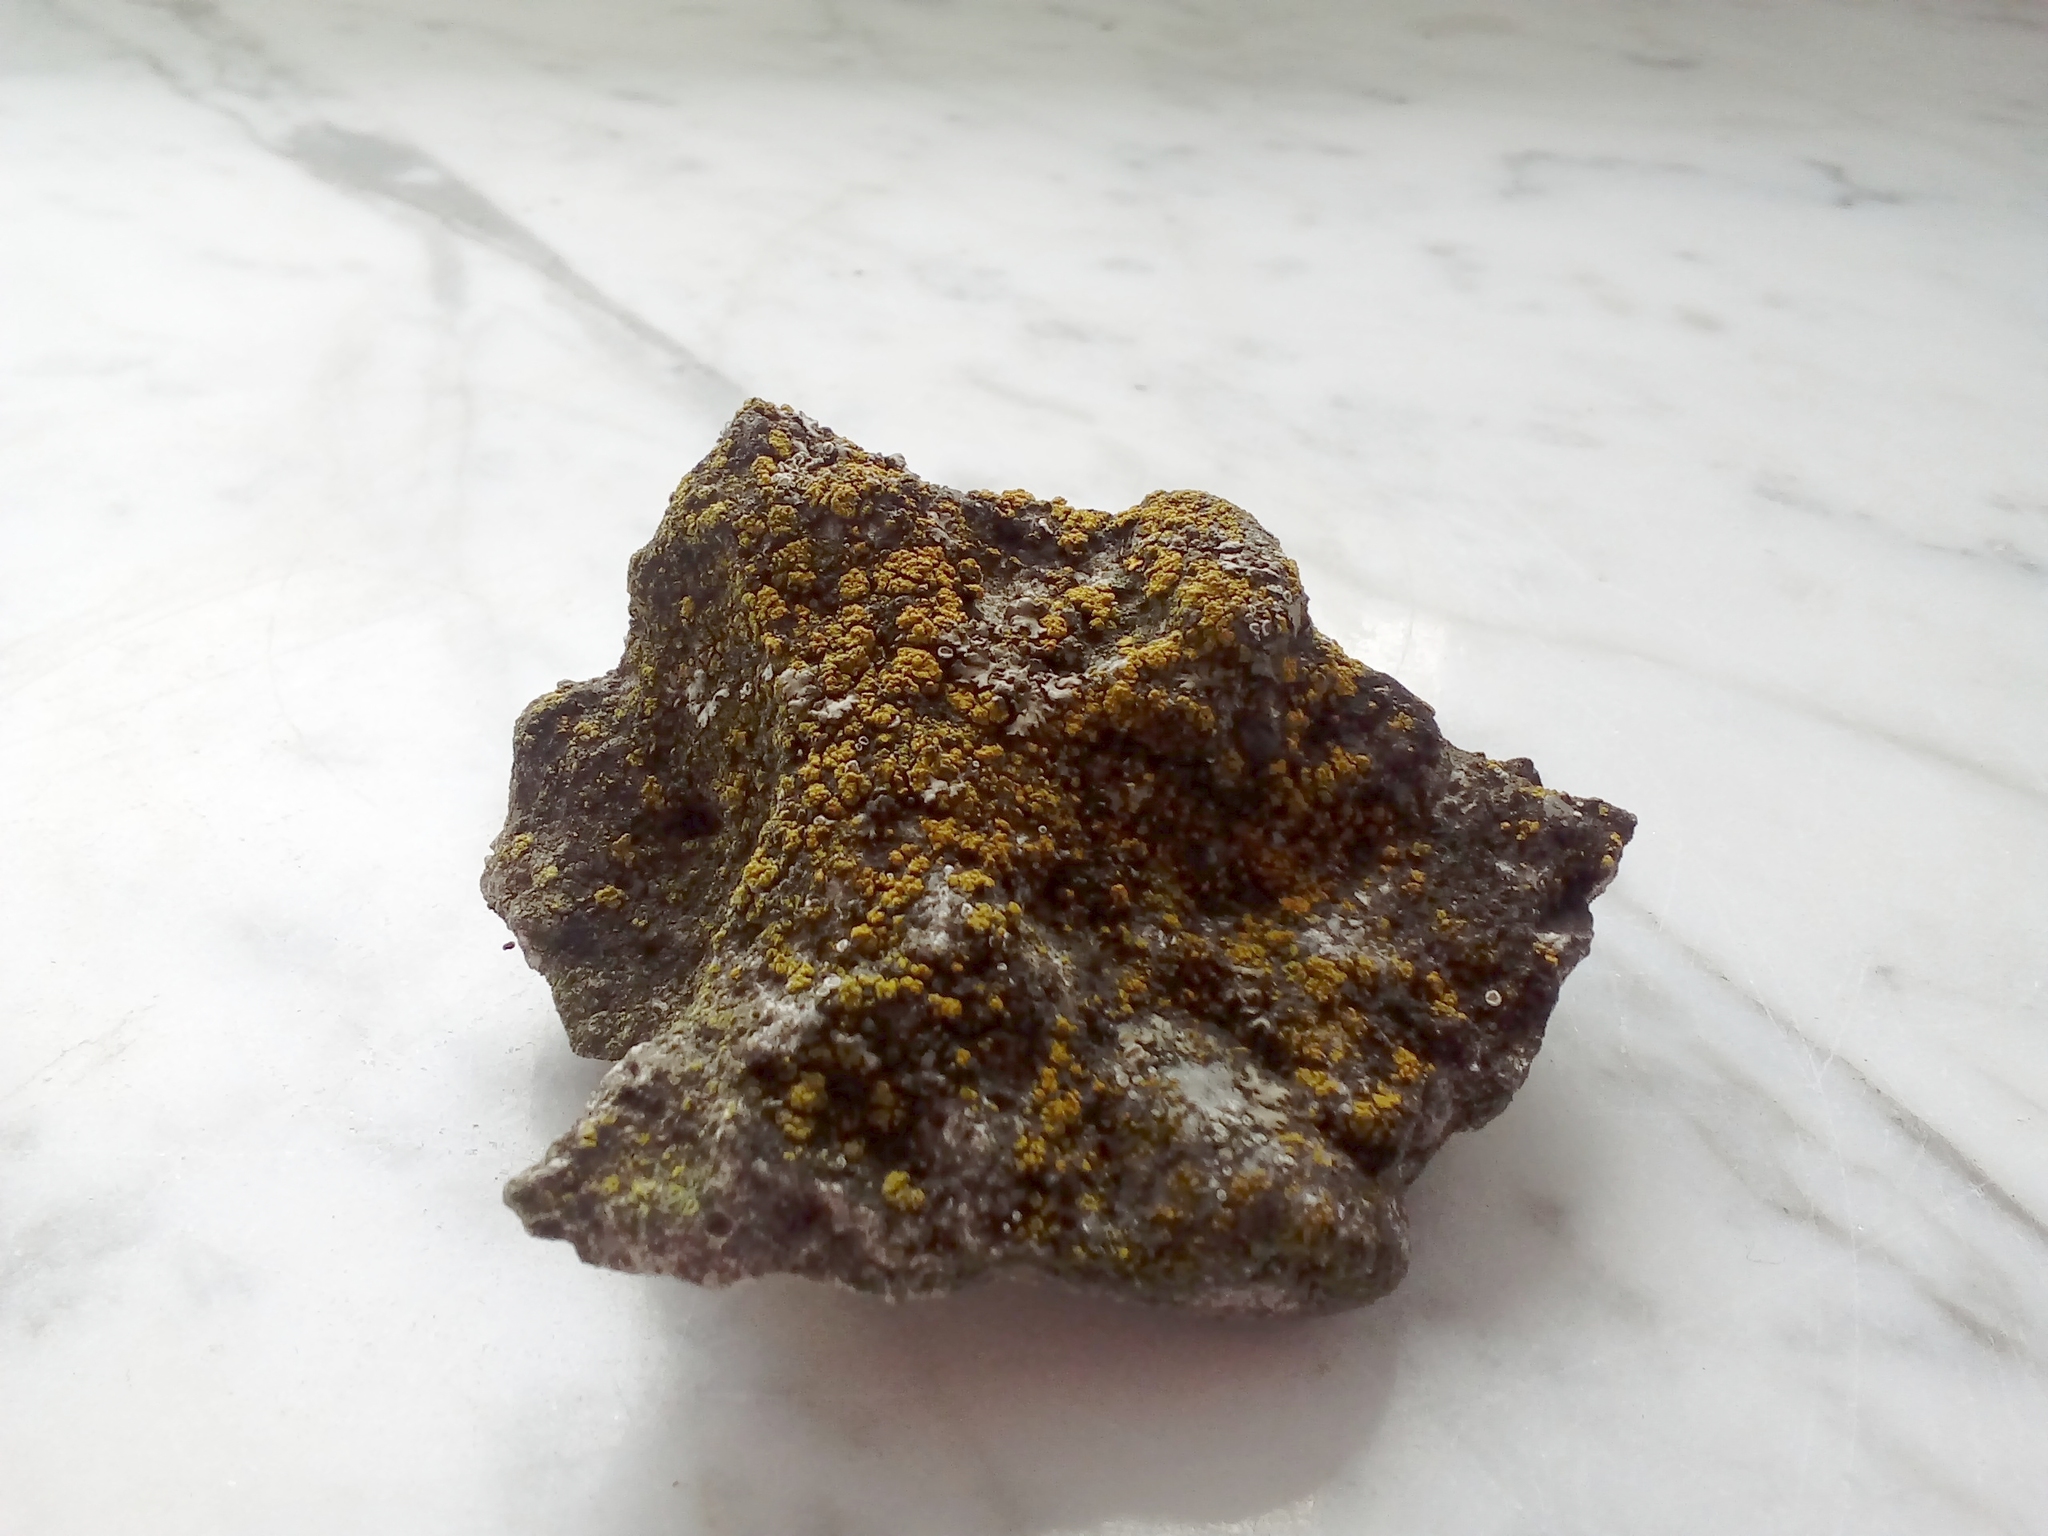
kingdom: Fungi
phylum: Ascomycota
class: Candelariomycetes
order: Candelariales
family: Candelariaceae
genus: Candelariella
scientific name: Candelariella vitellina
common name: Common goldspeck
